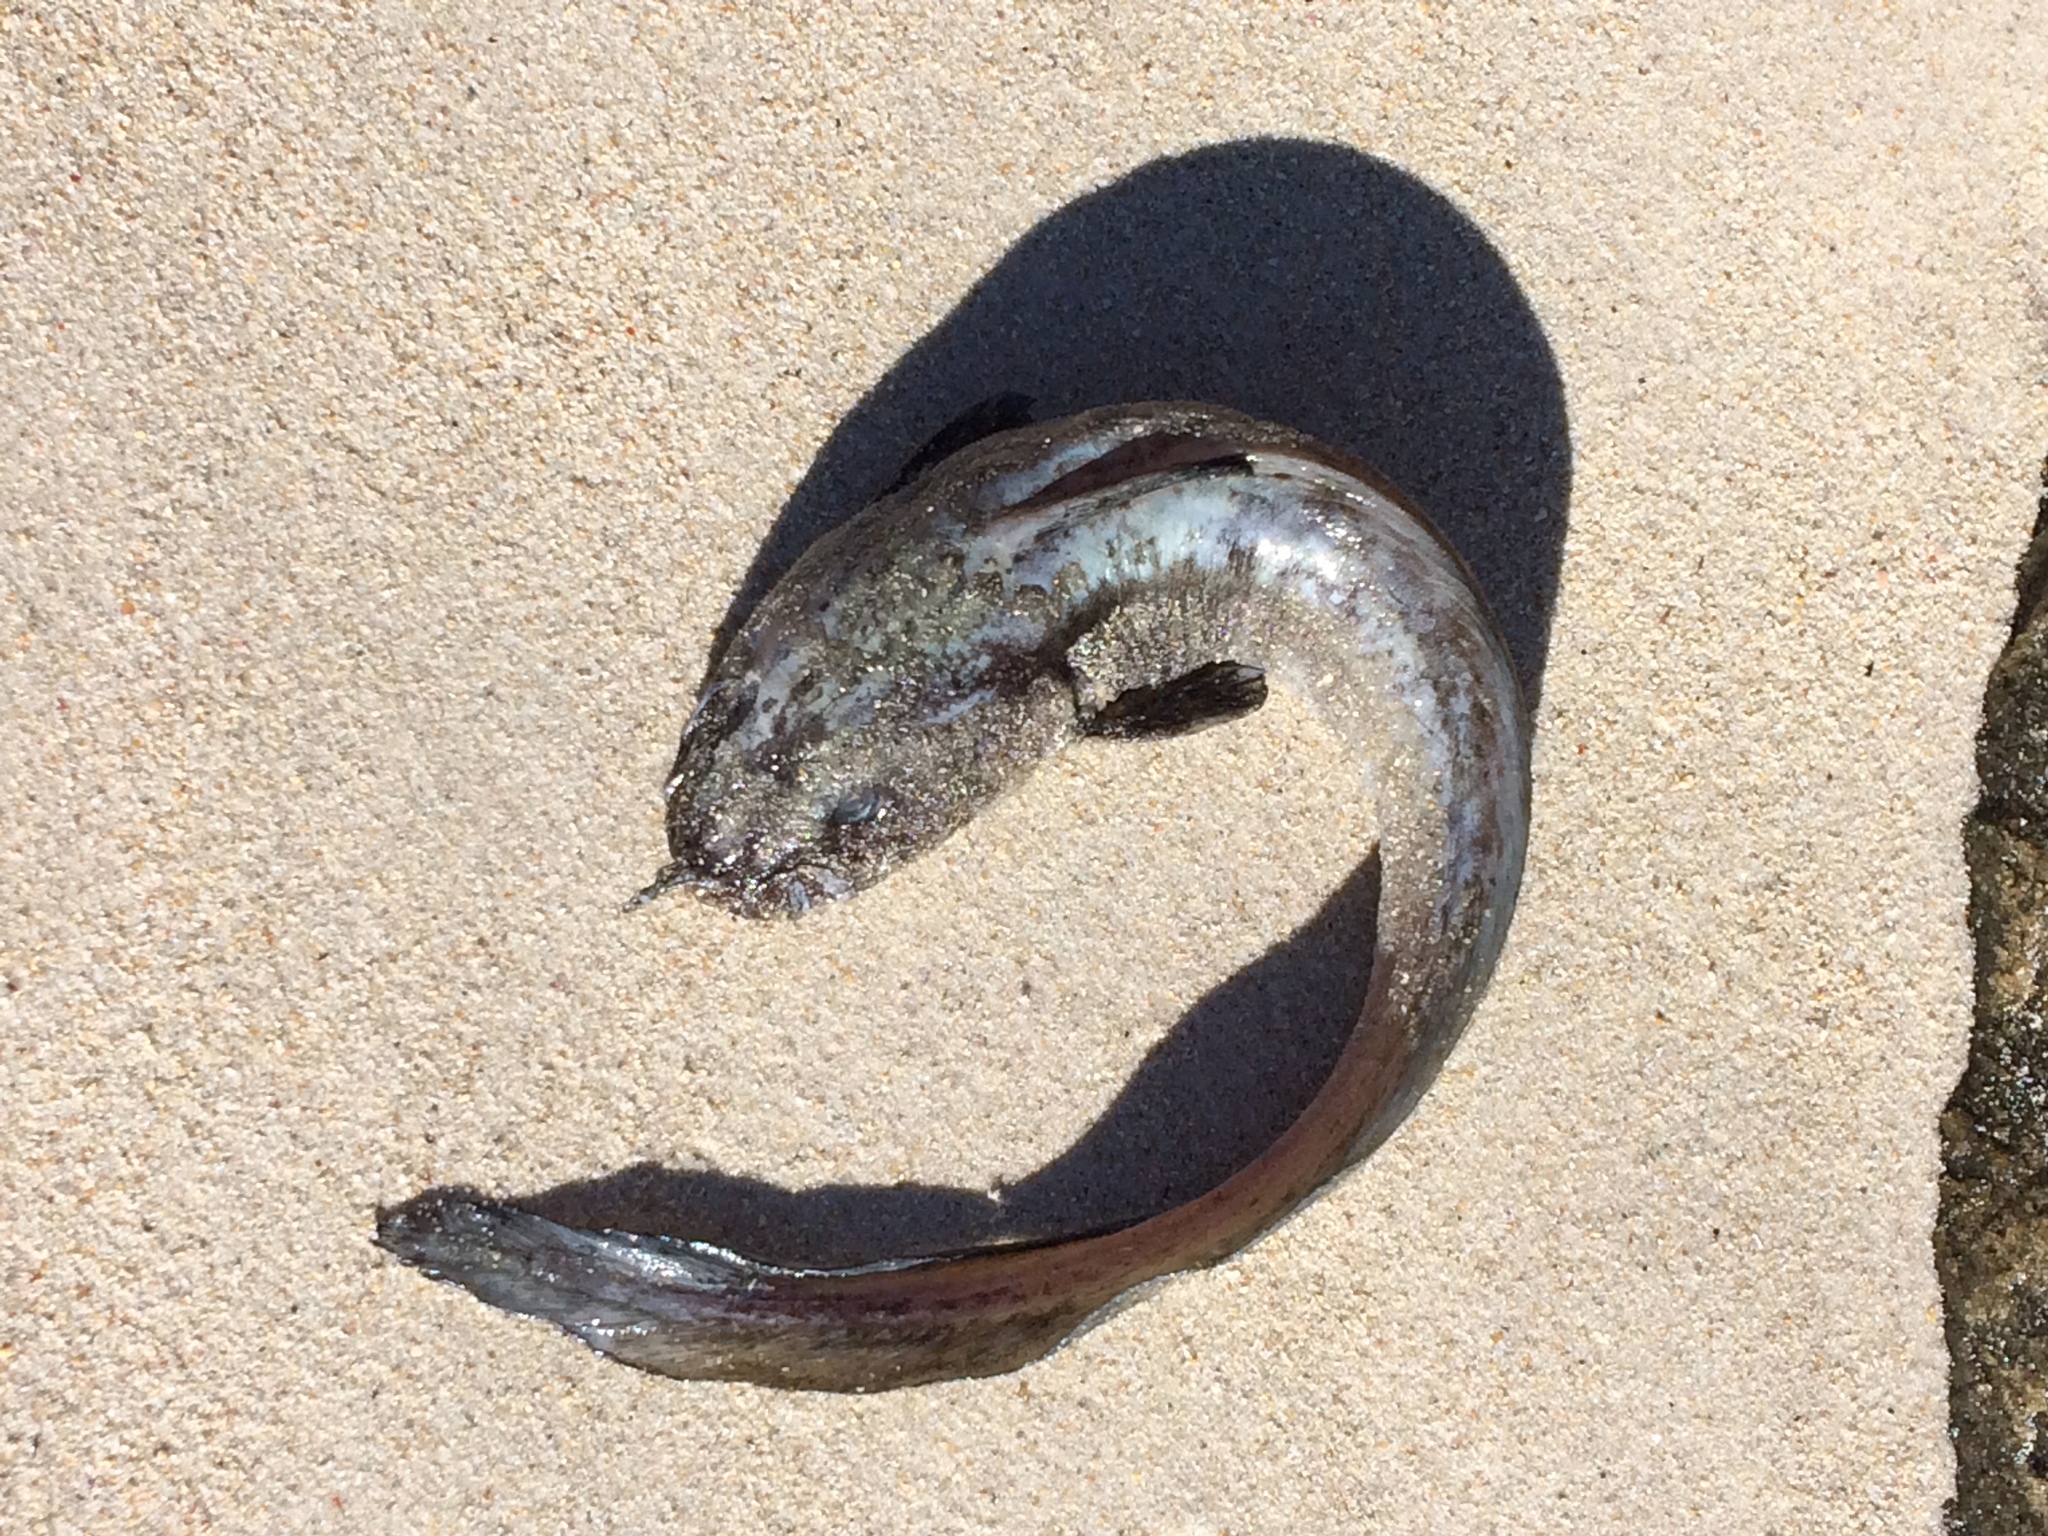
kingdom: Animalia
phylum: Chordata
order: Siluriformes
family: Plotosidae
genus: Cnidoglanis
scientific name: Cnidoglanis macrocephalus
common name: Cobbler
